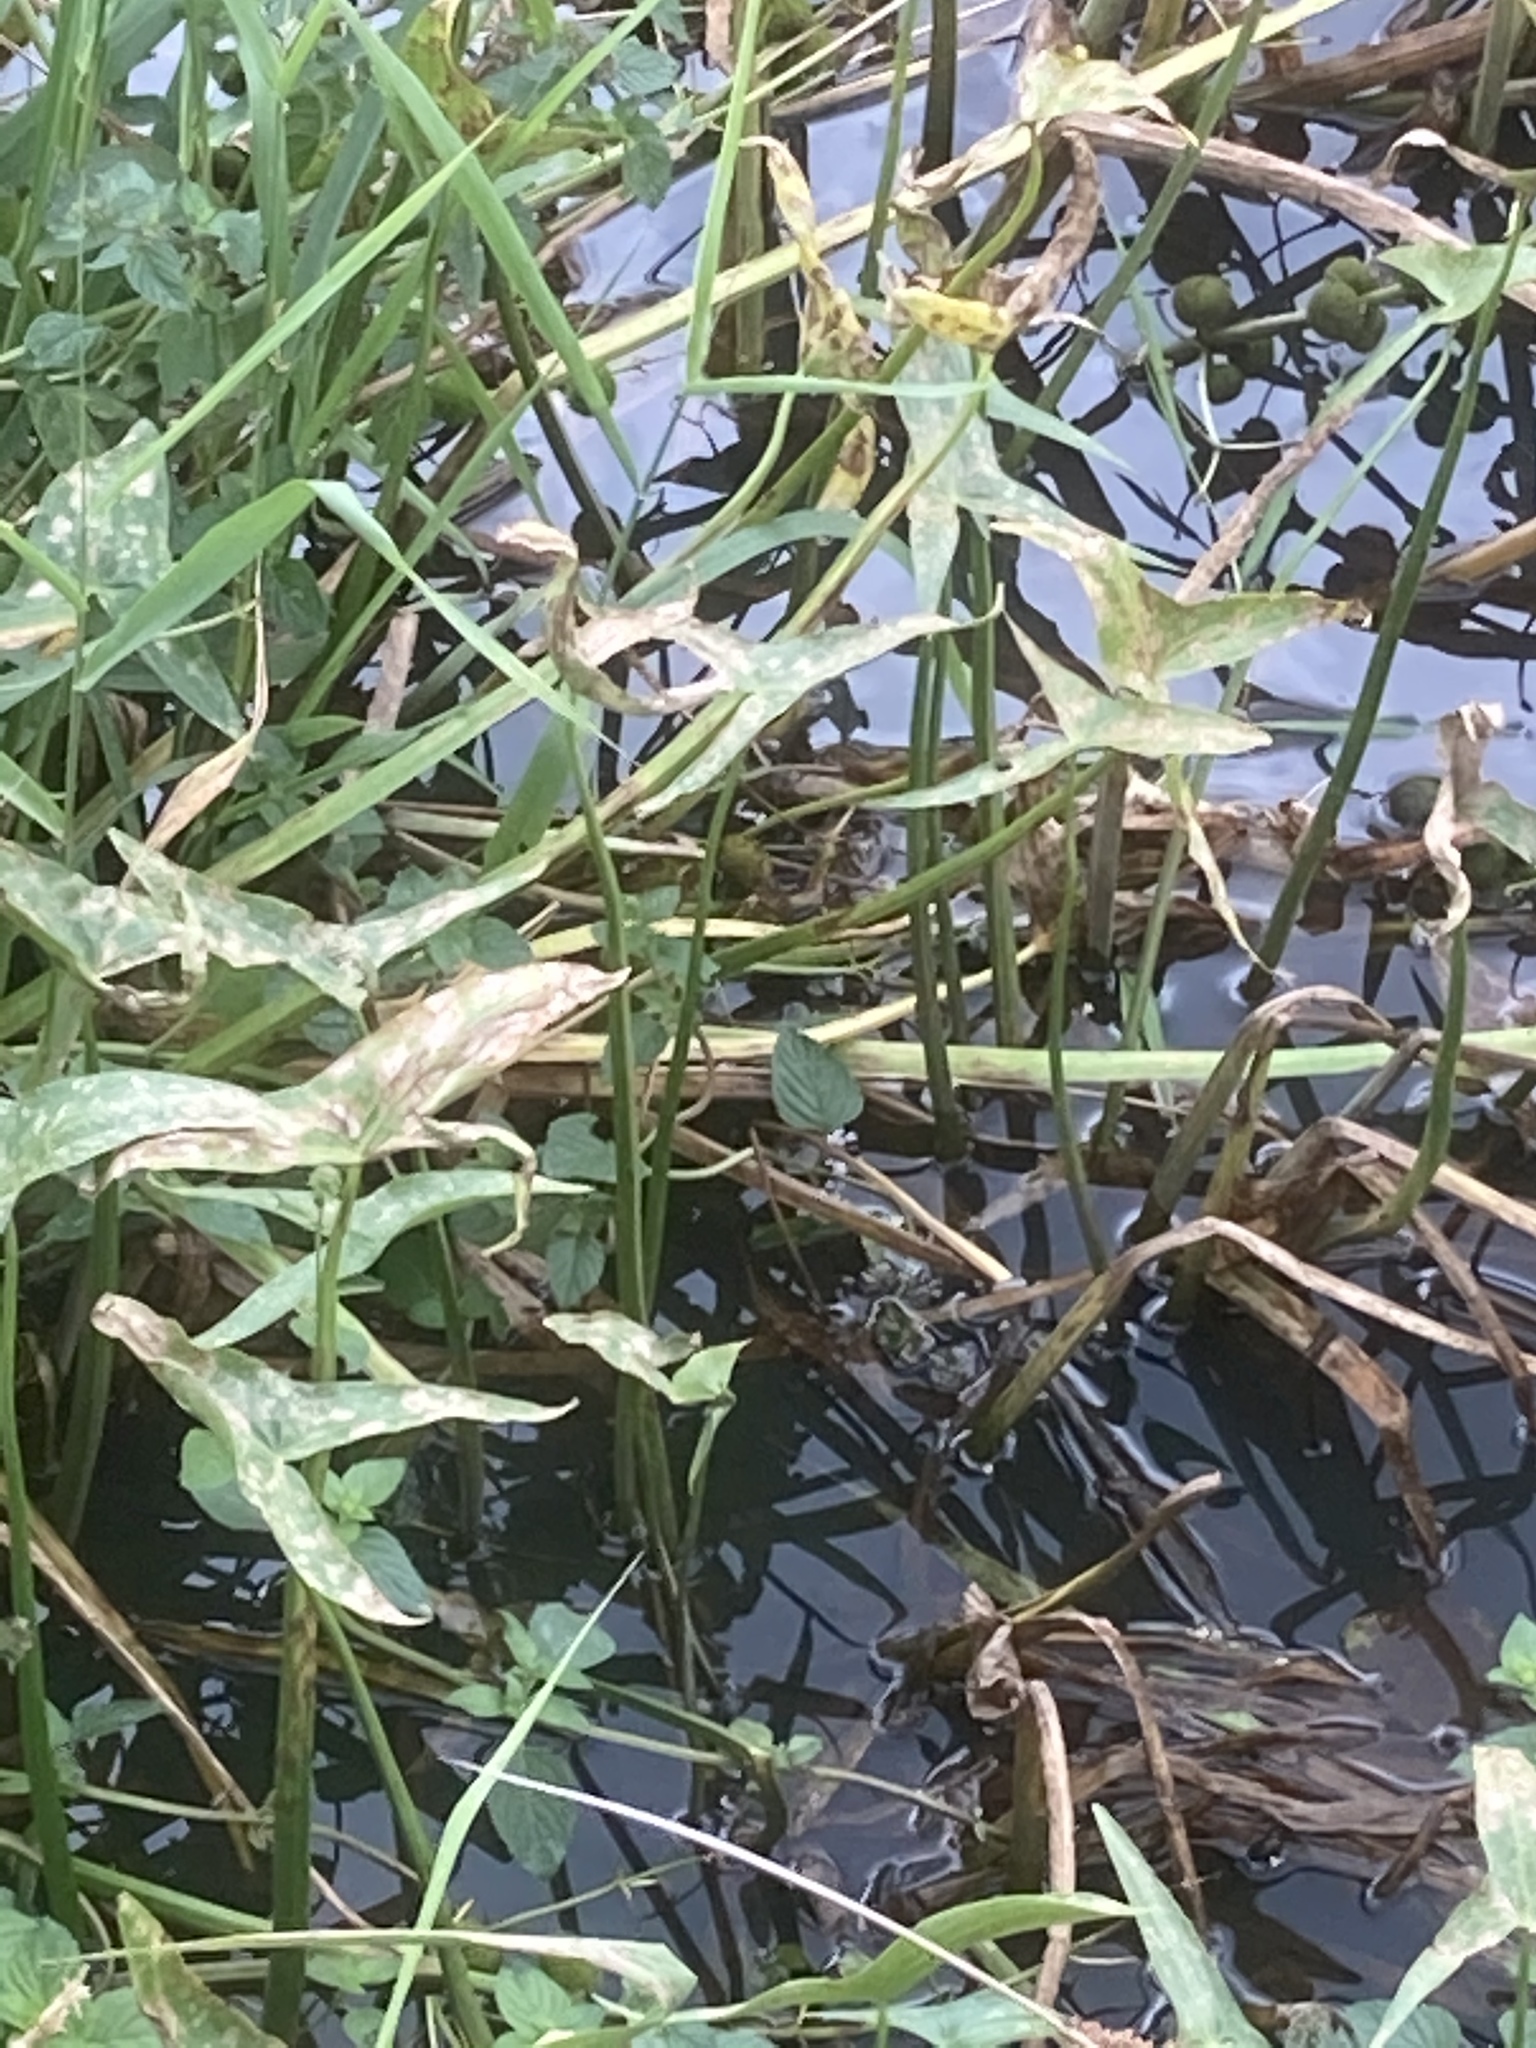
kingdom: Plantae
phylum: Tracheophyta
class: Liliopsida
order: Alismatales
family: Alismataceae
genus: Sagittaria
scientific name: Sagittaria sagittifolia
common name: Arrowhead
